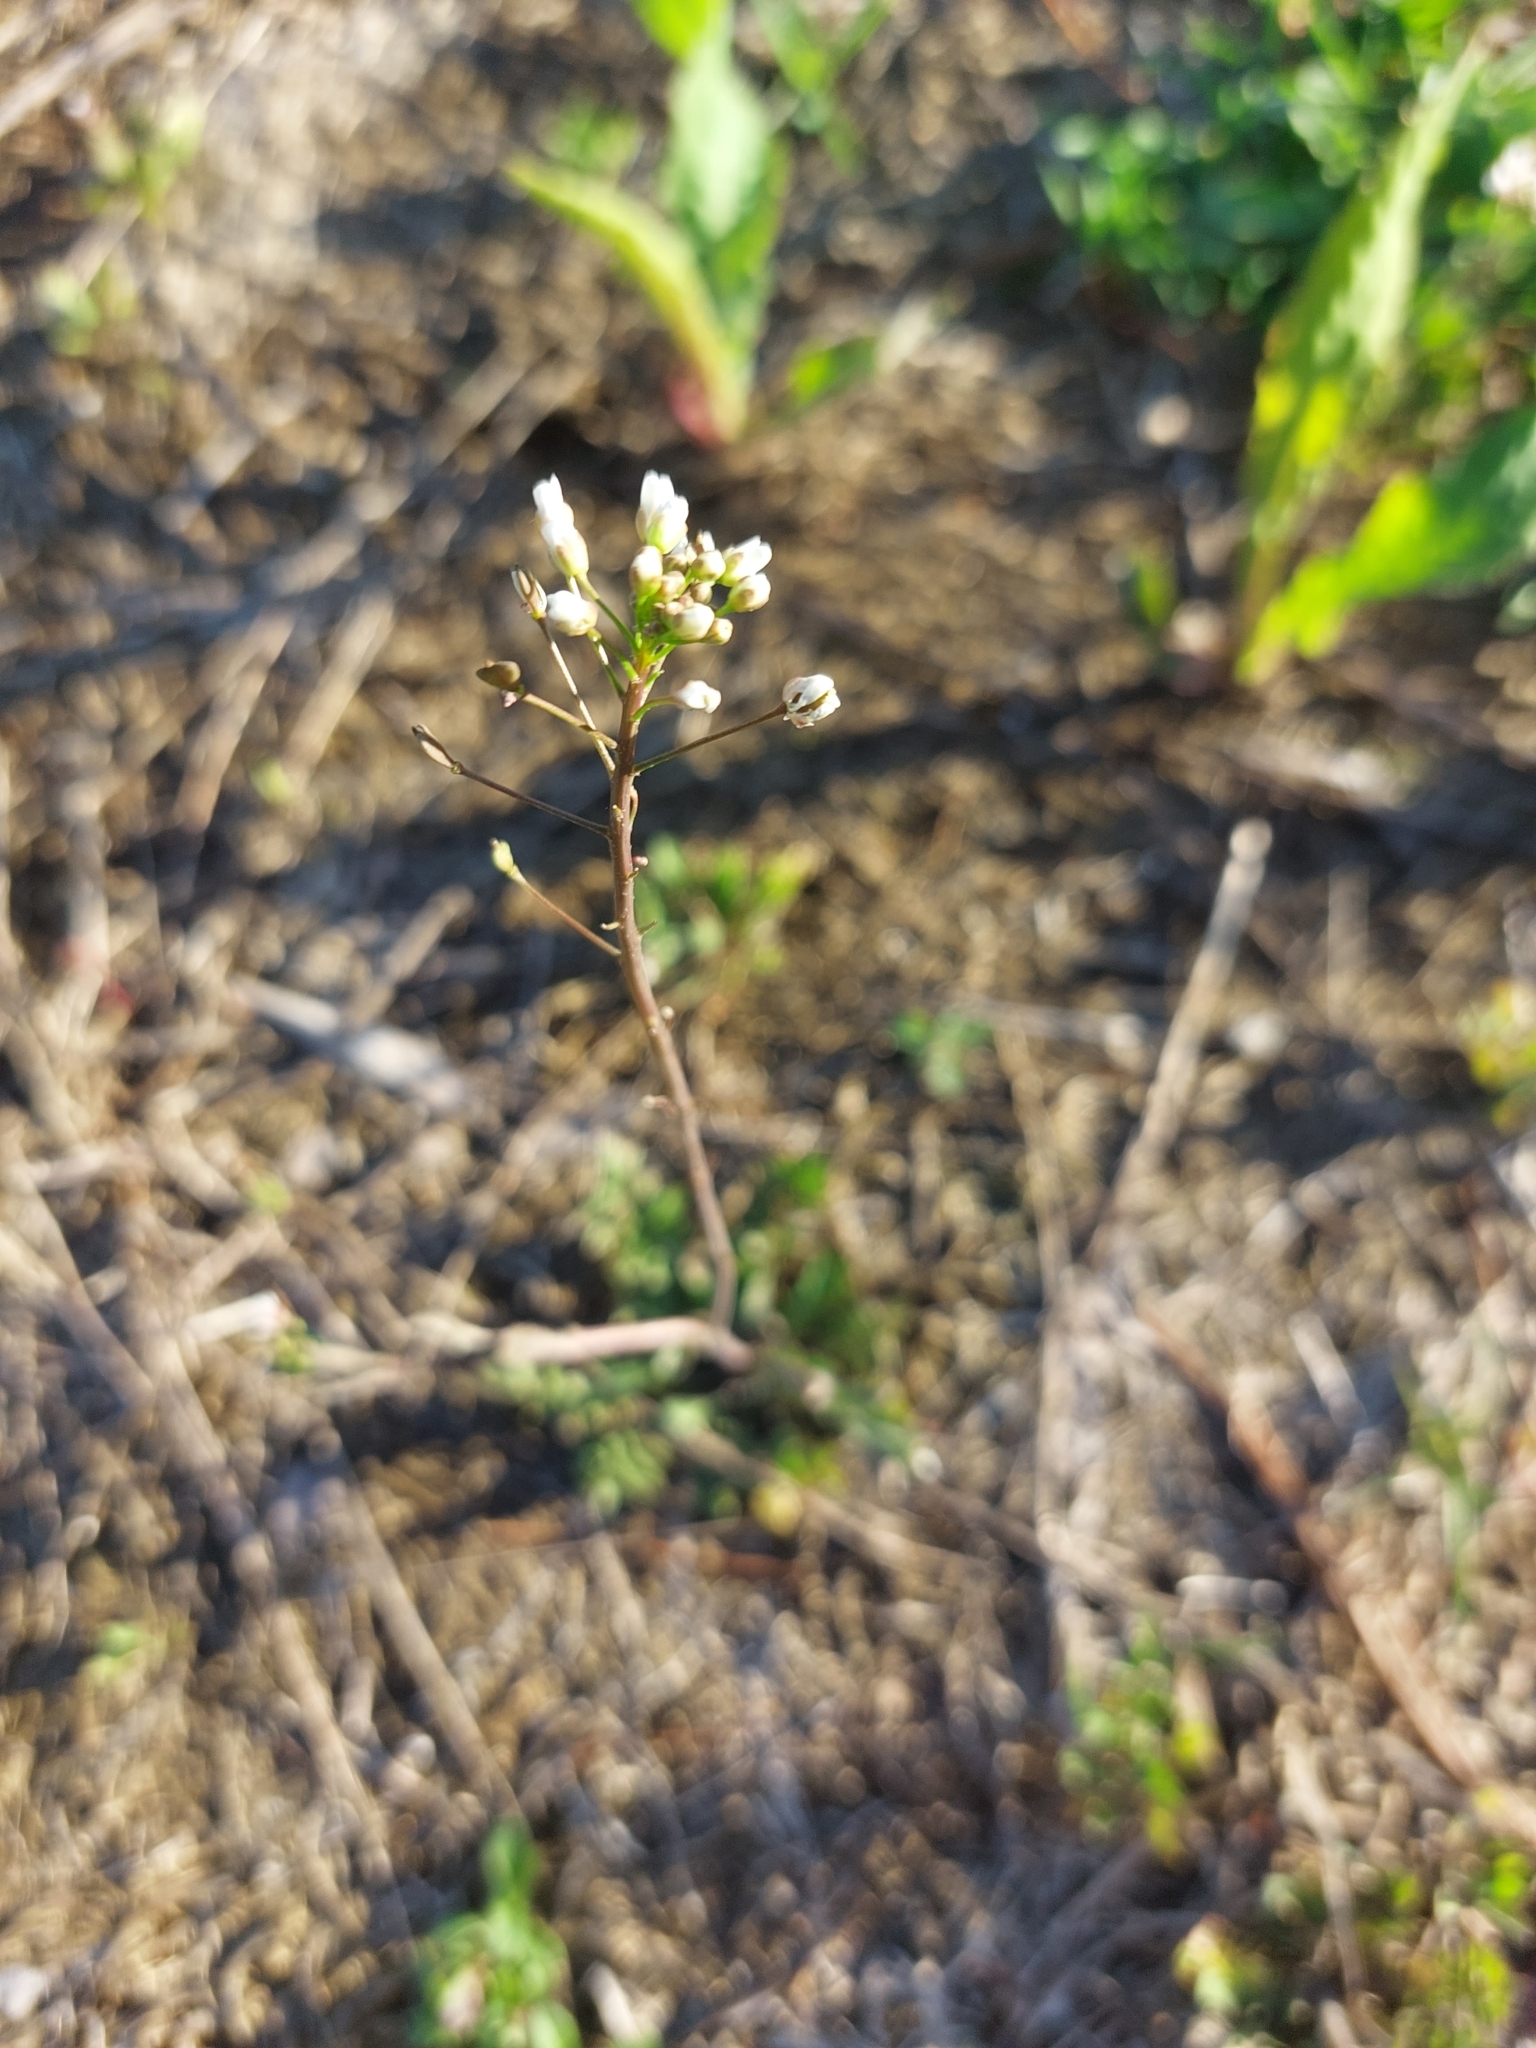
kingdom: Plantae
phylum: Tracheophyta
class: Magnoliopsida
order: Brassicales
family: Brassicaceae
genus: Capsella
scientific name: Capsella bursa-pastoris
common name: Shepherd's purse
